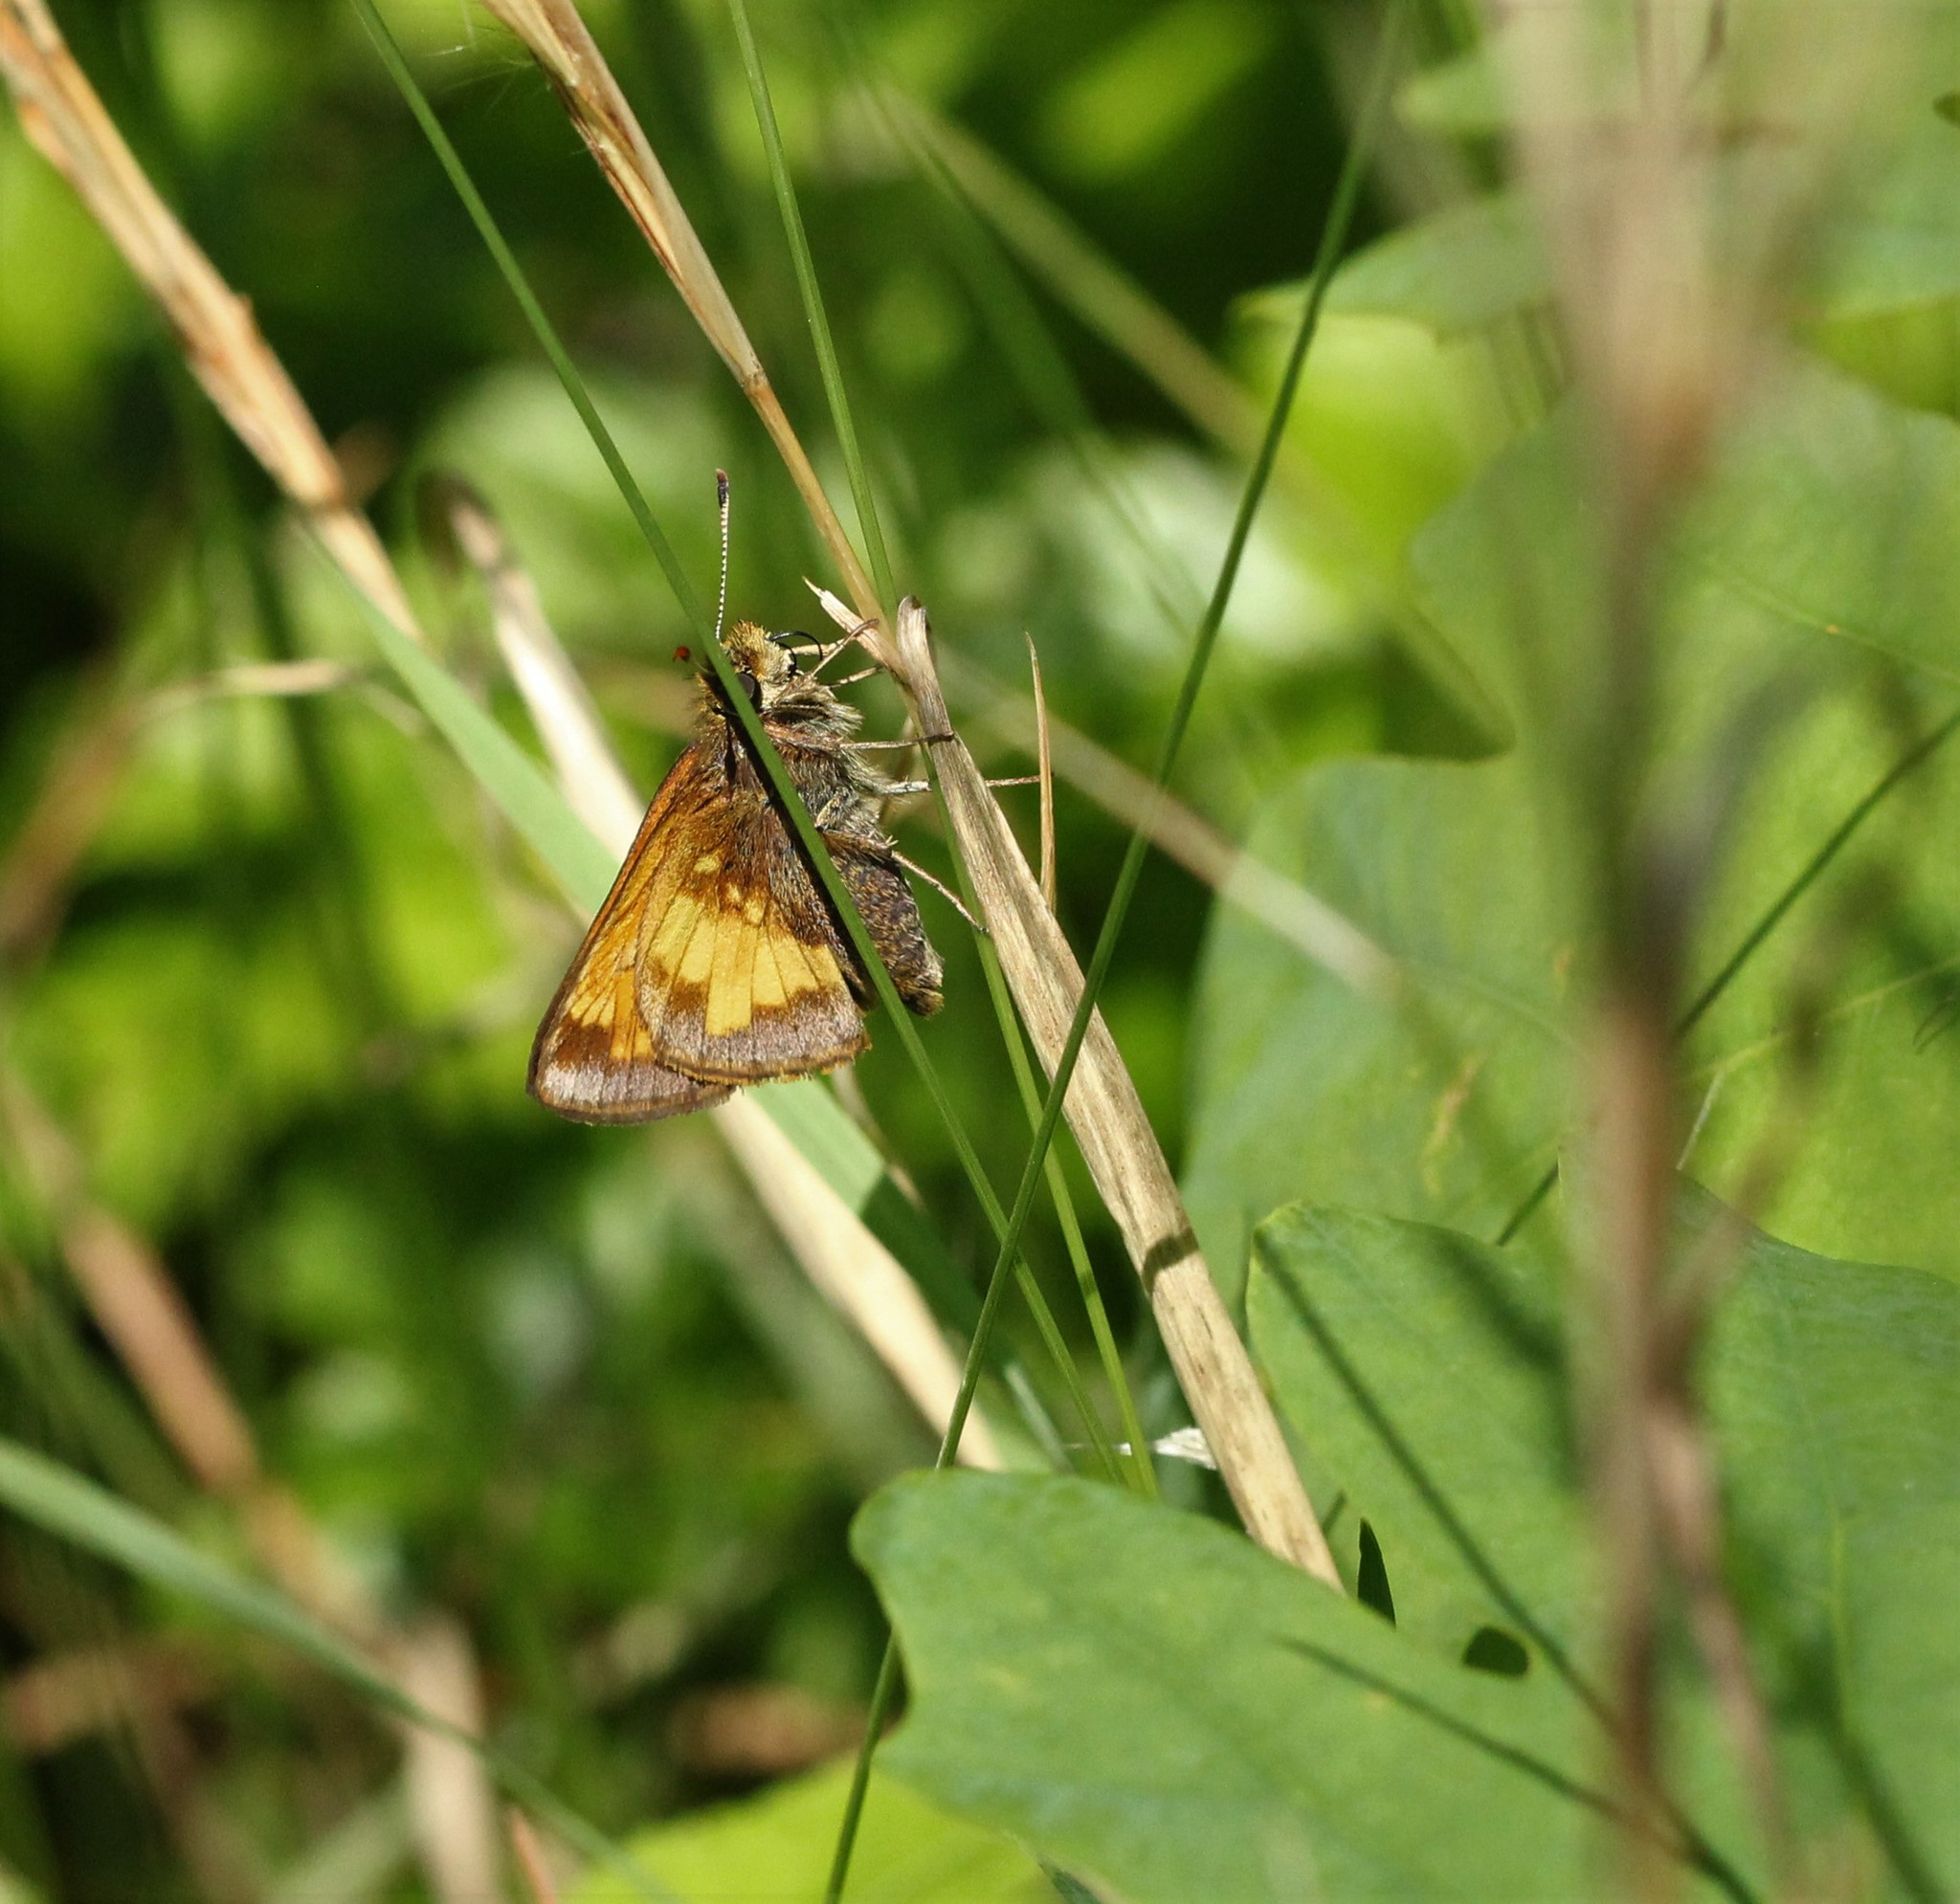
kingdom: Animalia
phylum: Arthropoda
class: Insecta
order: Lepidoptera
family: Hesperiidae
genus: Lon
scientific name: Lon hobomok
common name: Hobomok skipper
